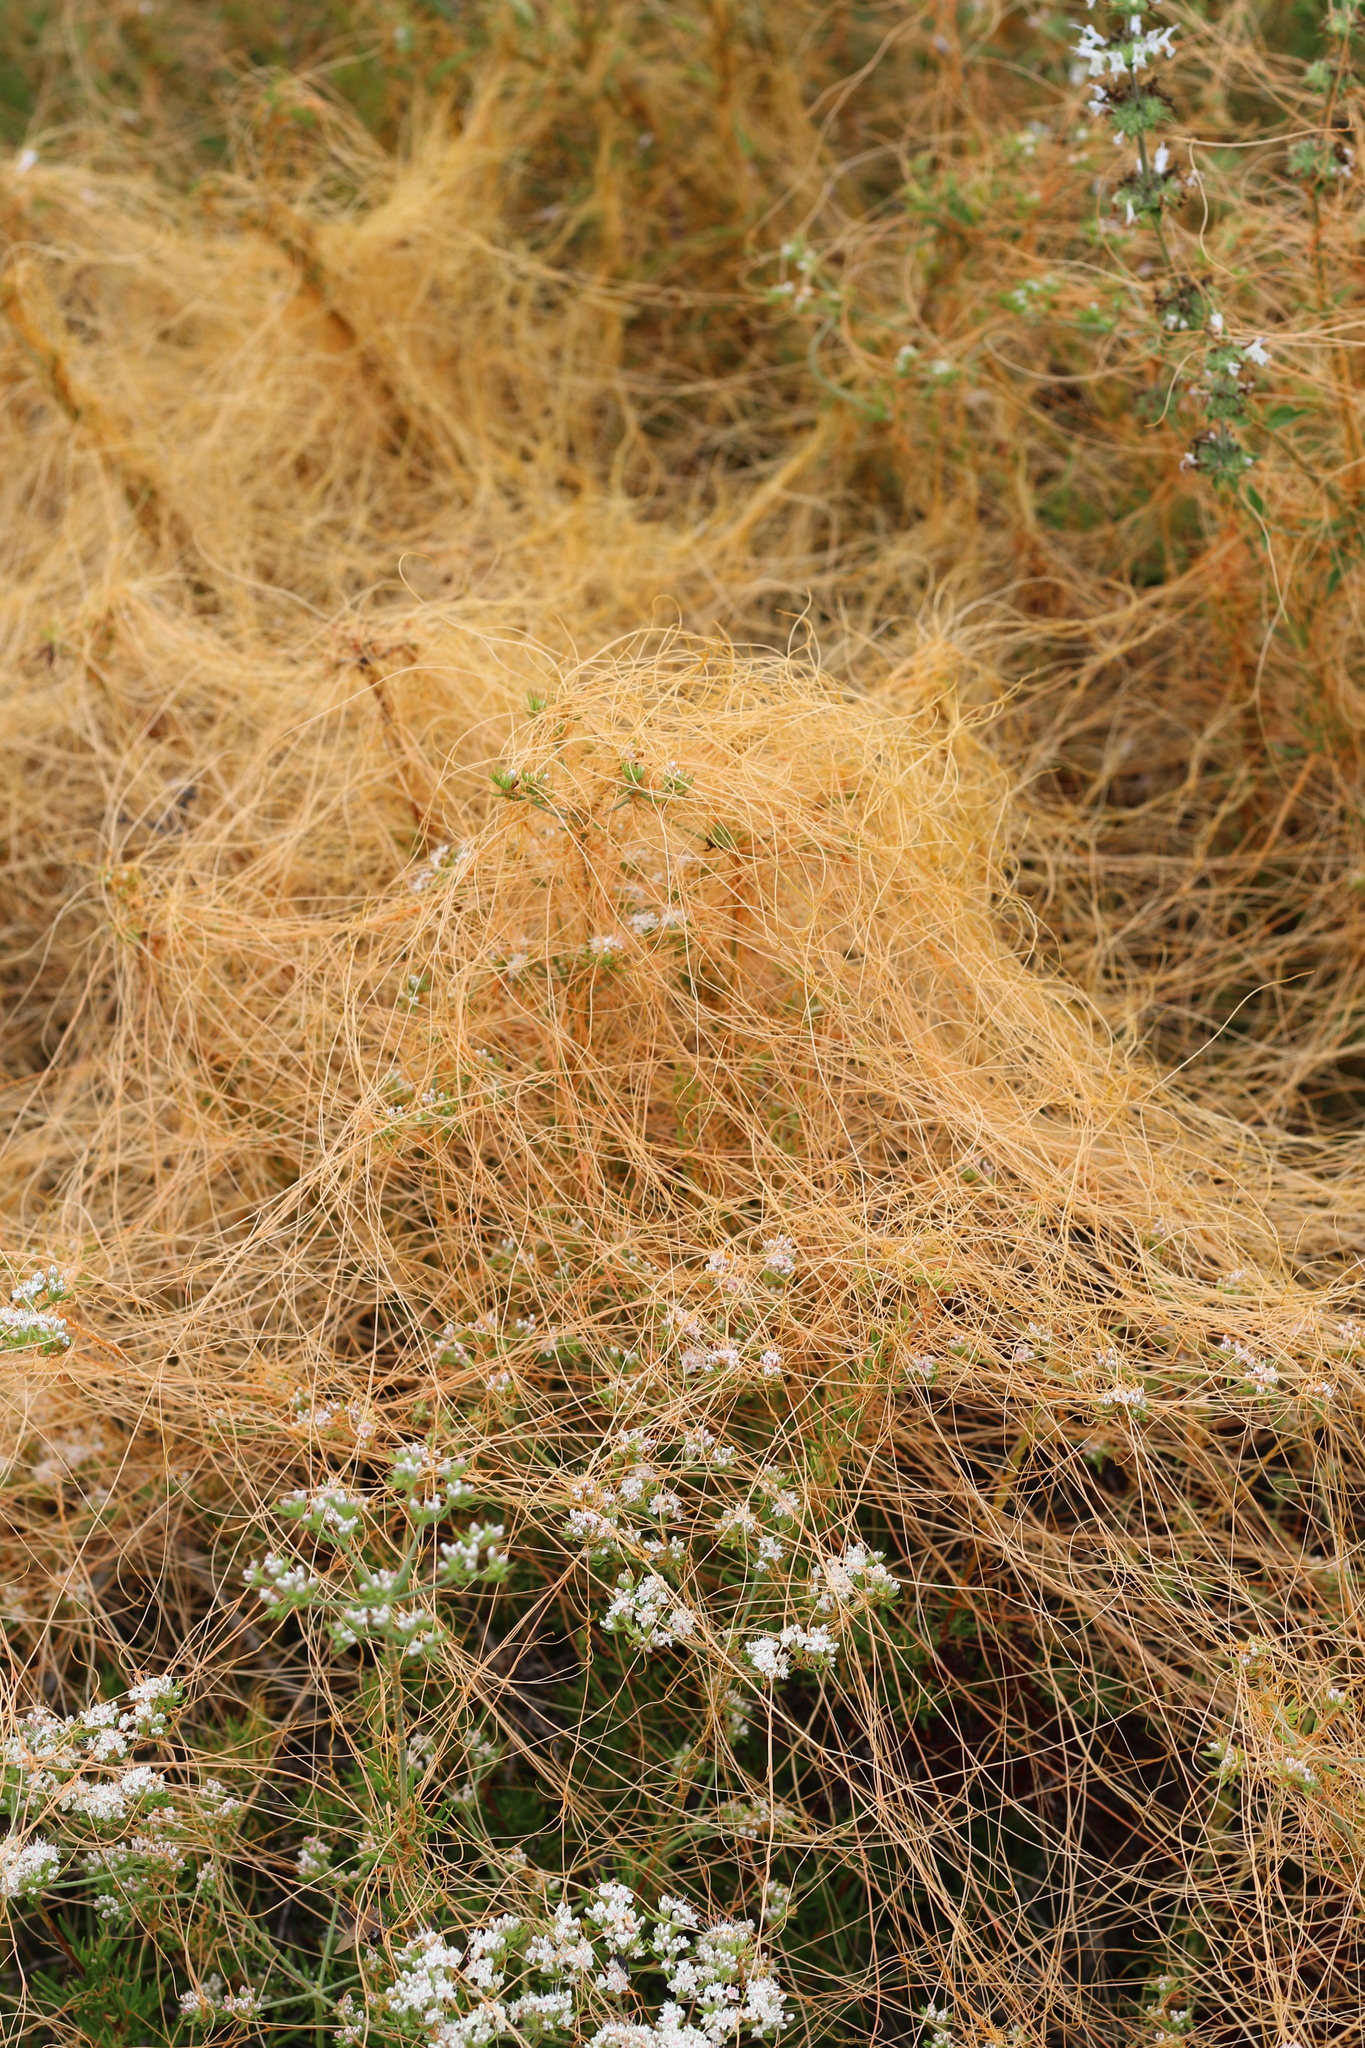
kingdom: Plantae
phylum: Tracheophyta
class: Magnoliopsida
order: Solanales
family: Convolvulaceae
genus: Cuscuta
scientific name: Cuscuta californica
